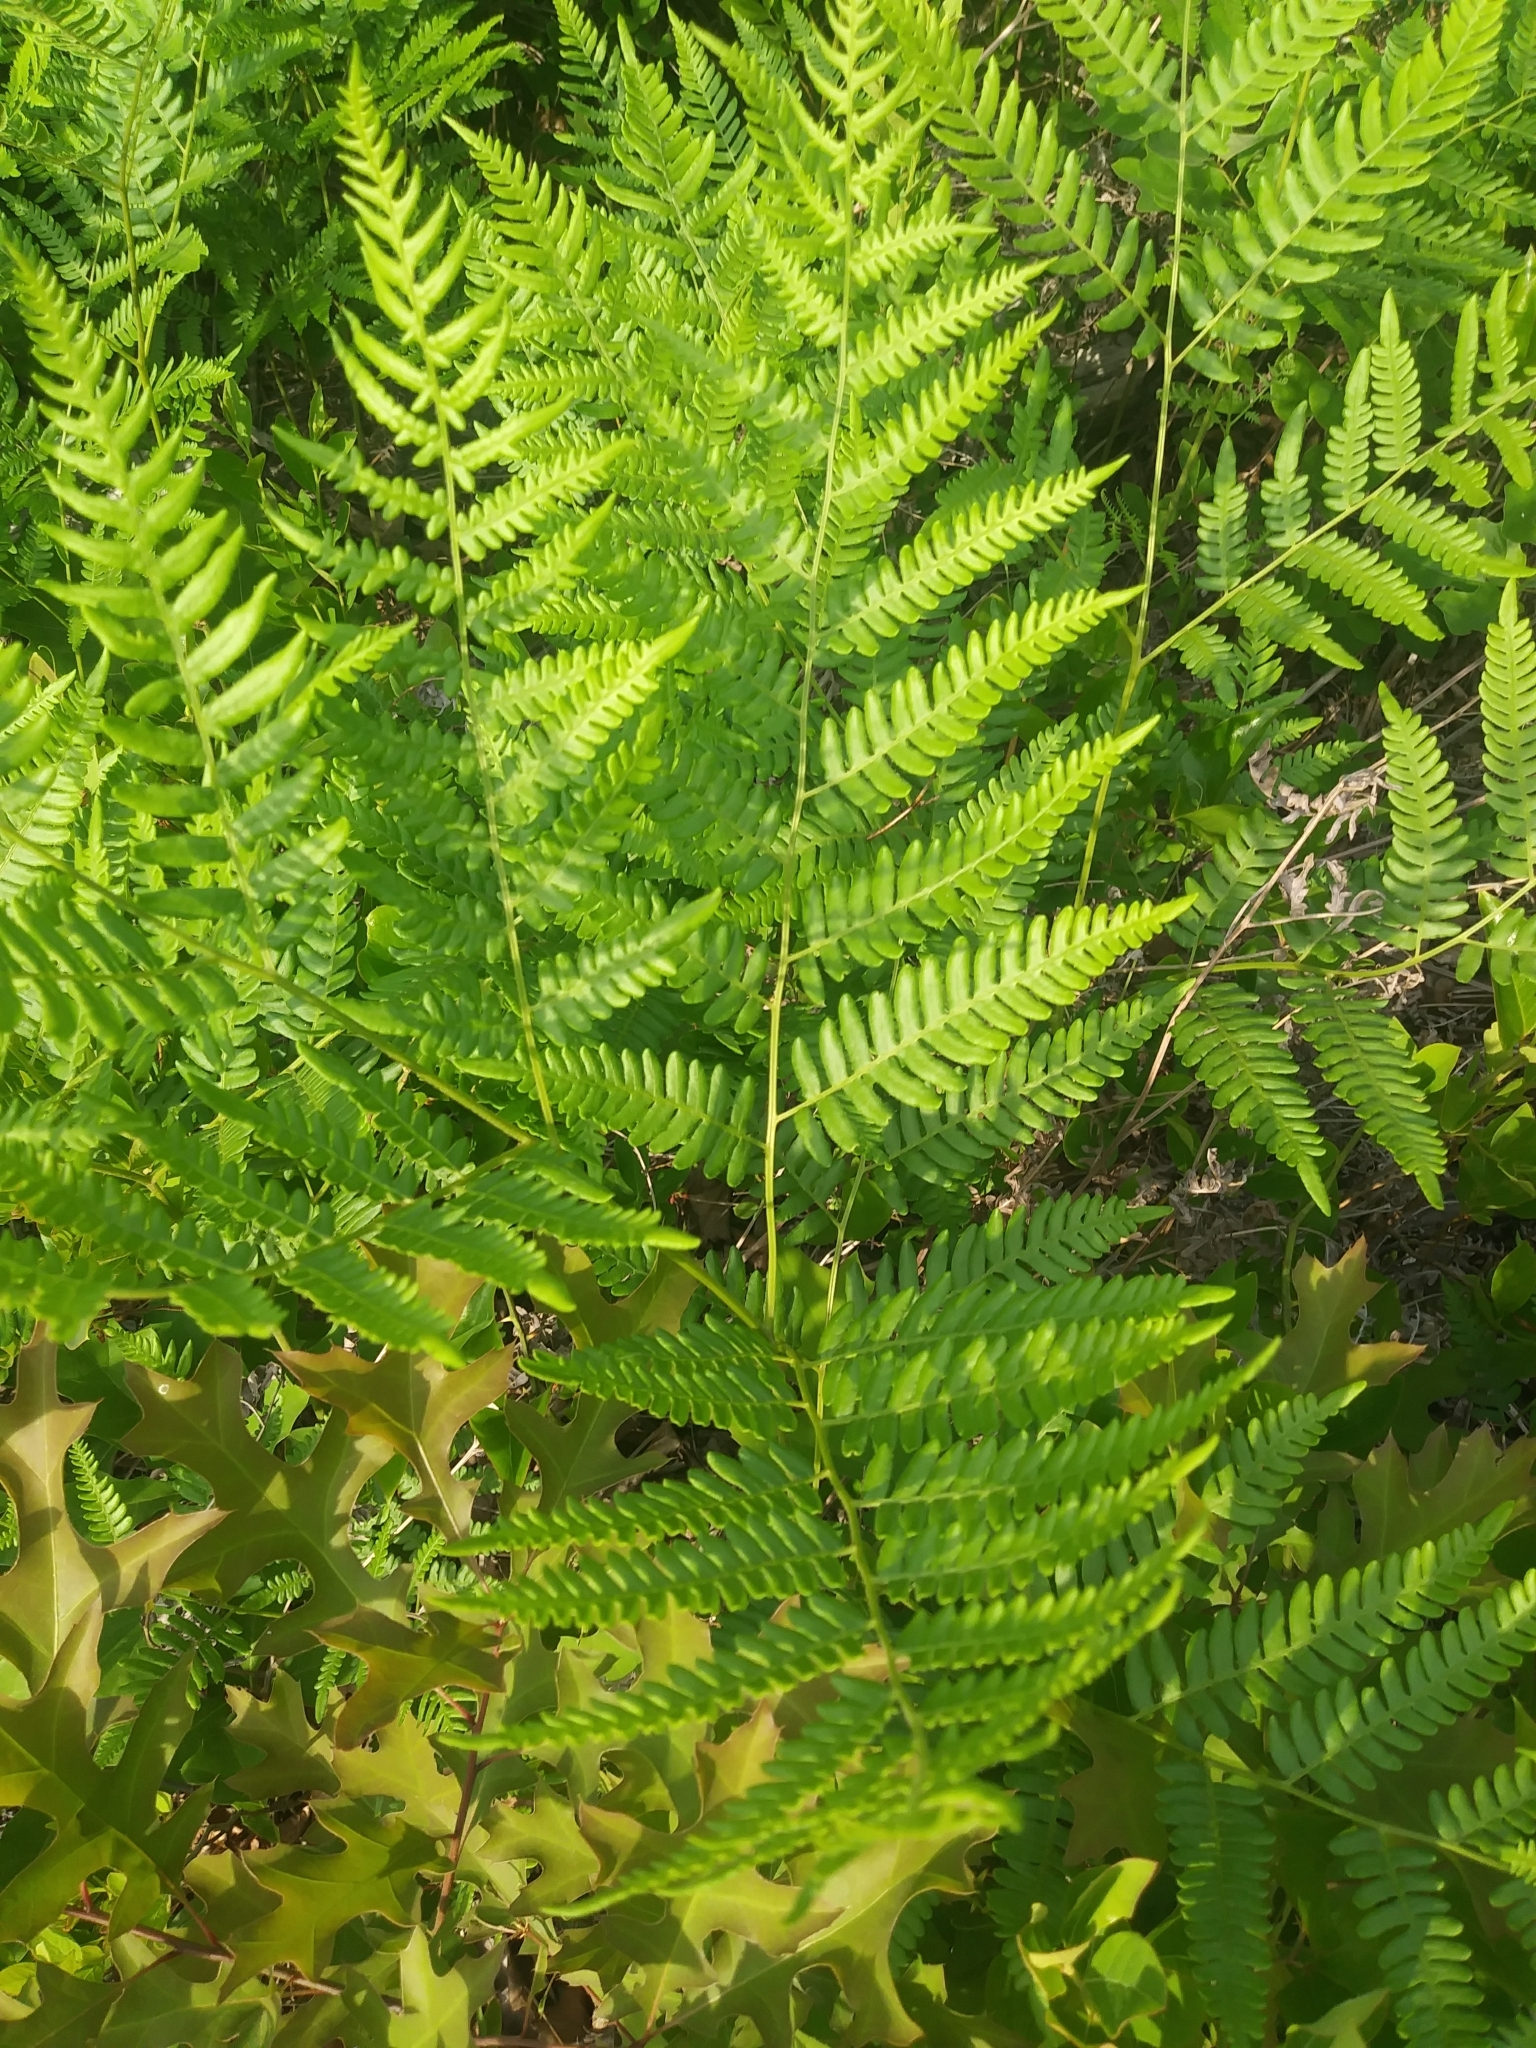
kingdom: Plantae
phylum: Tracheophyta
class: Polypodiopsida
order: Polypodiales
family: Dennstaedtiaceae
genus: Pteridium
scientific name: Pteridium aquilinum
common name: Bracken
